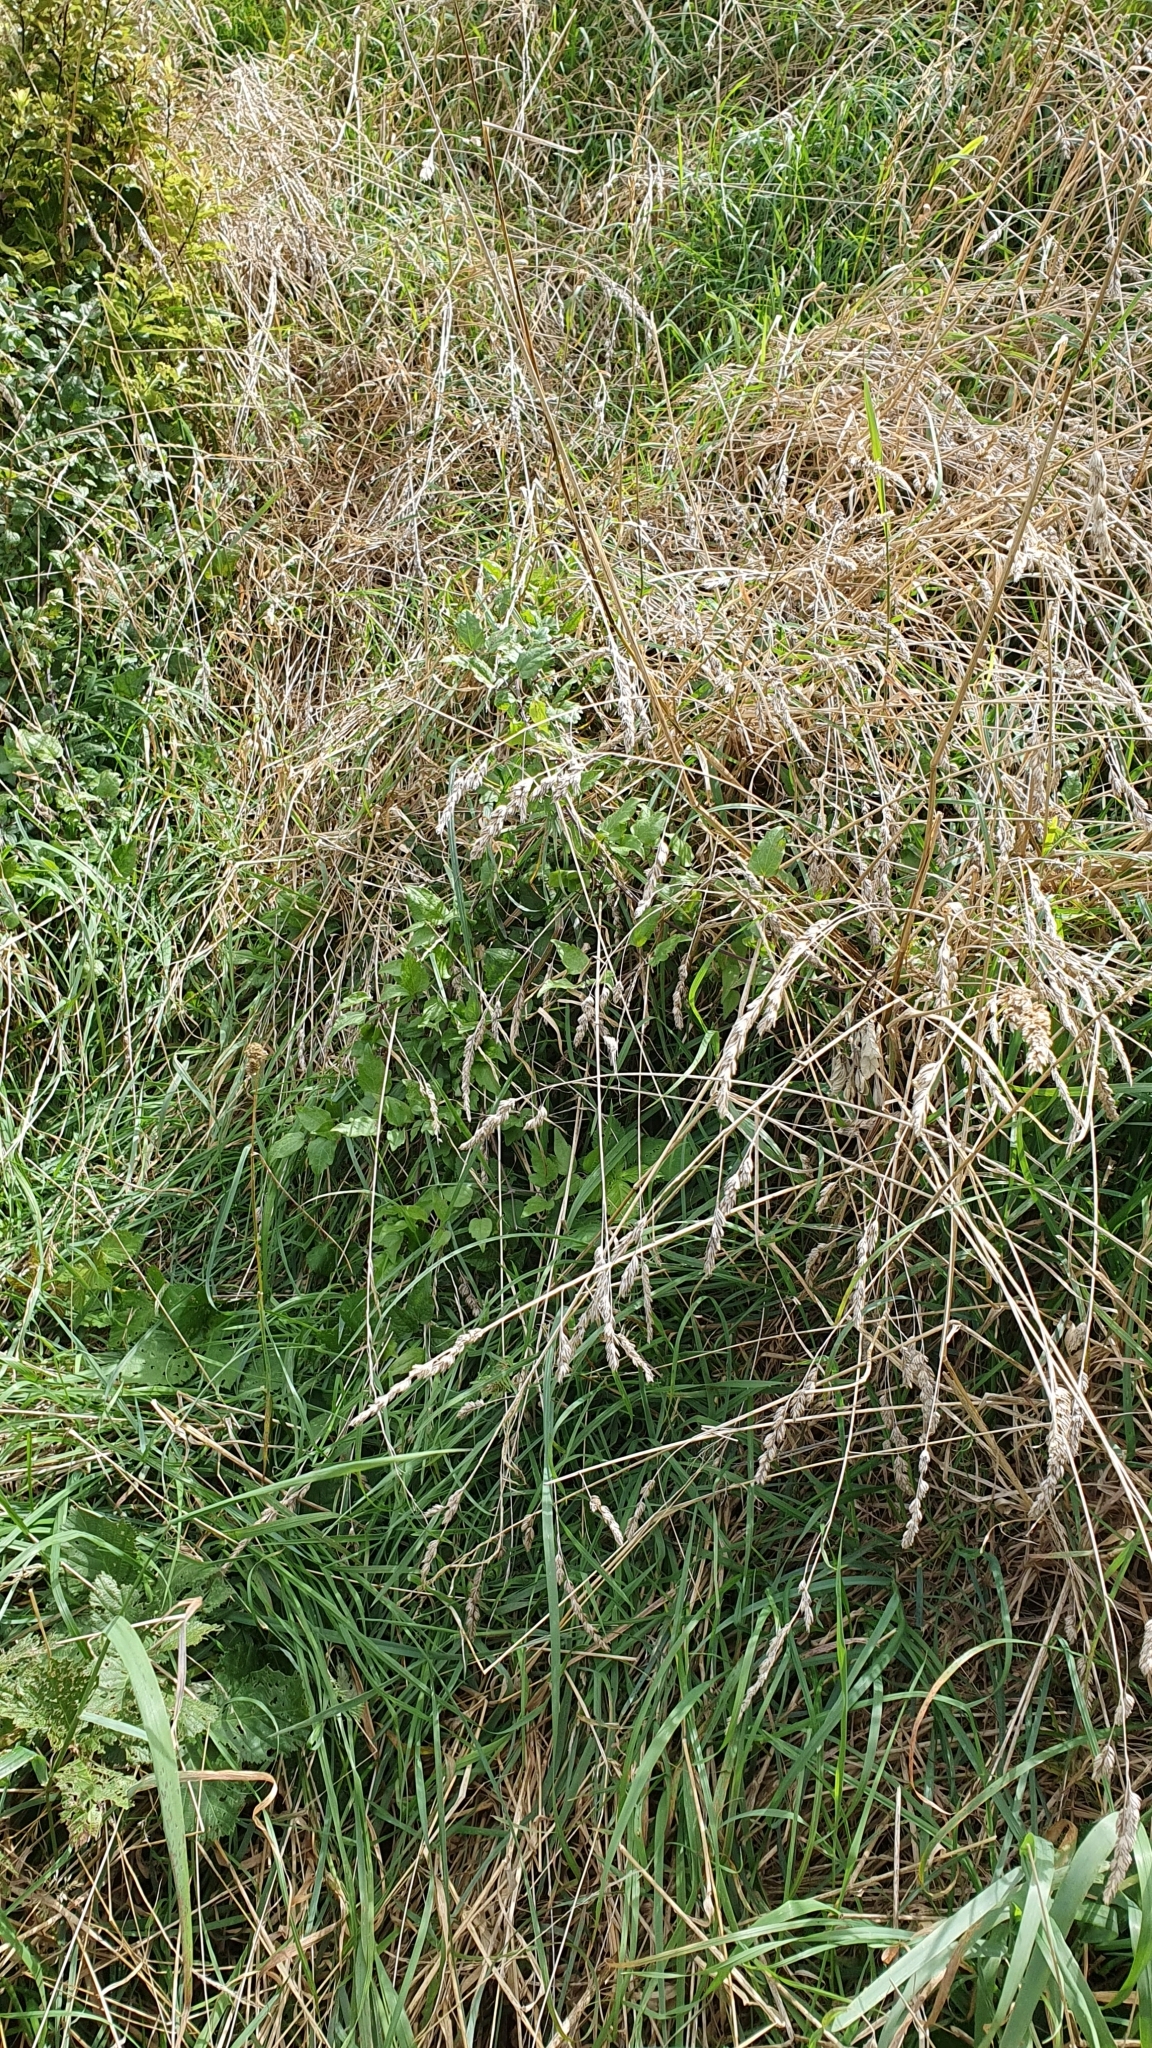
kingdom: Plantae
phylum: Tracheophyta
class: Magnoliopsida
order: Ranunculales
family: Ranunculaceae
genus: Clematis
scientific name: Clematis vitalba
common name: Evergreen clematis
